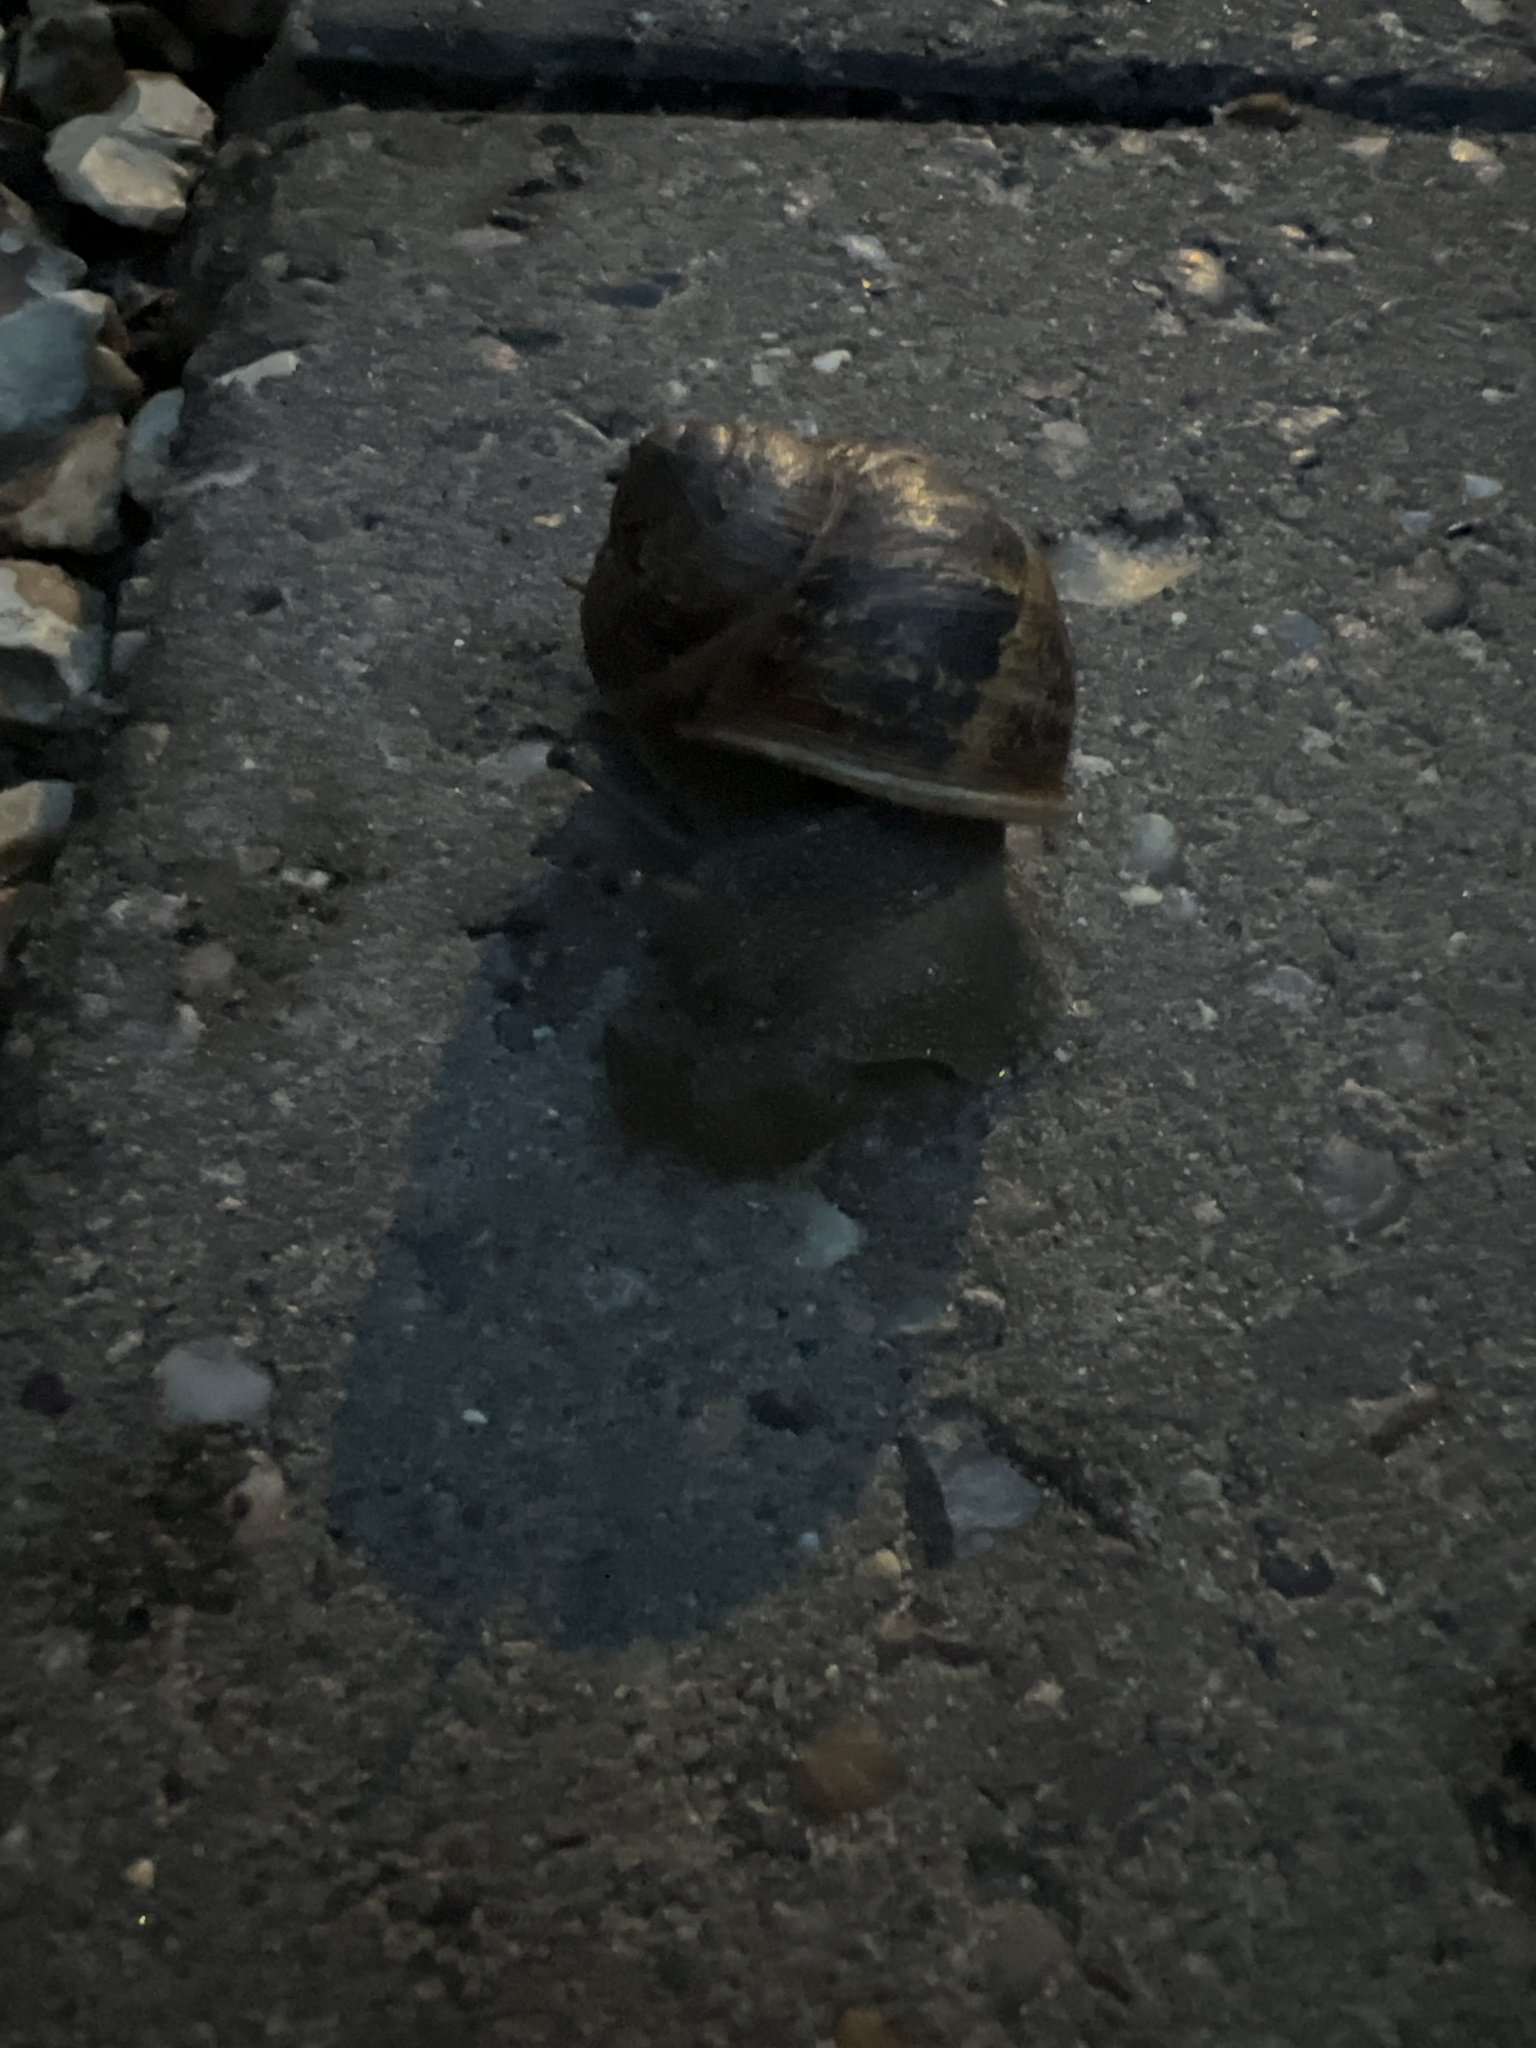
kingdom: Animalia
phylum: Mollusca
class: Gastropoda
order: Stylommatophora
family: Helicidae
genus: Cornu
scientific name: Cornu aspersum
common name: Brown garden snail
